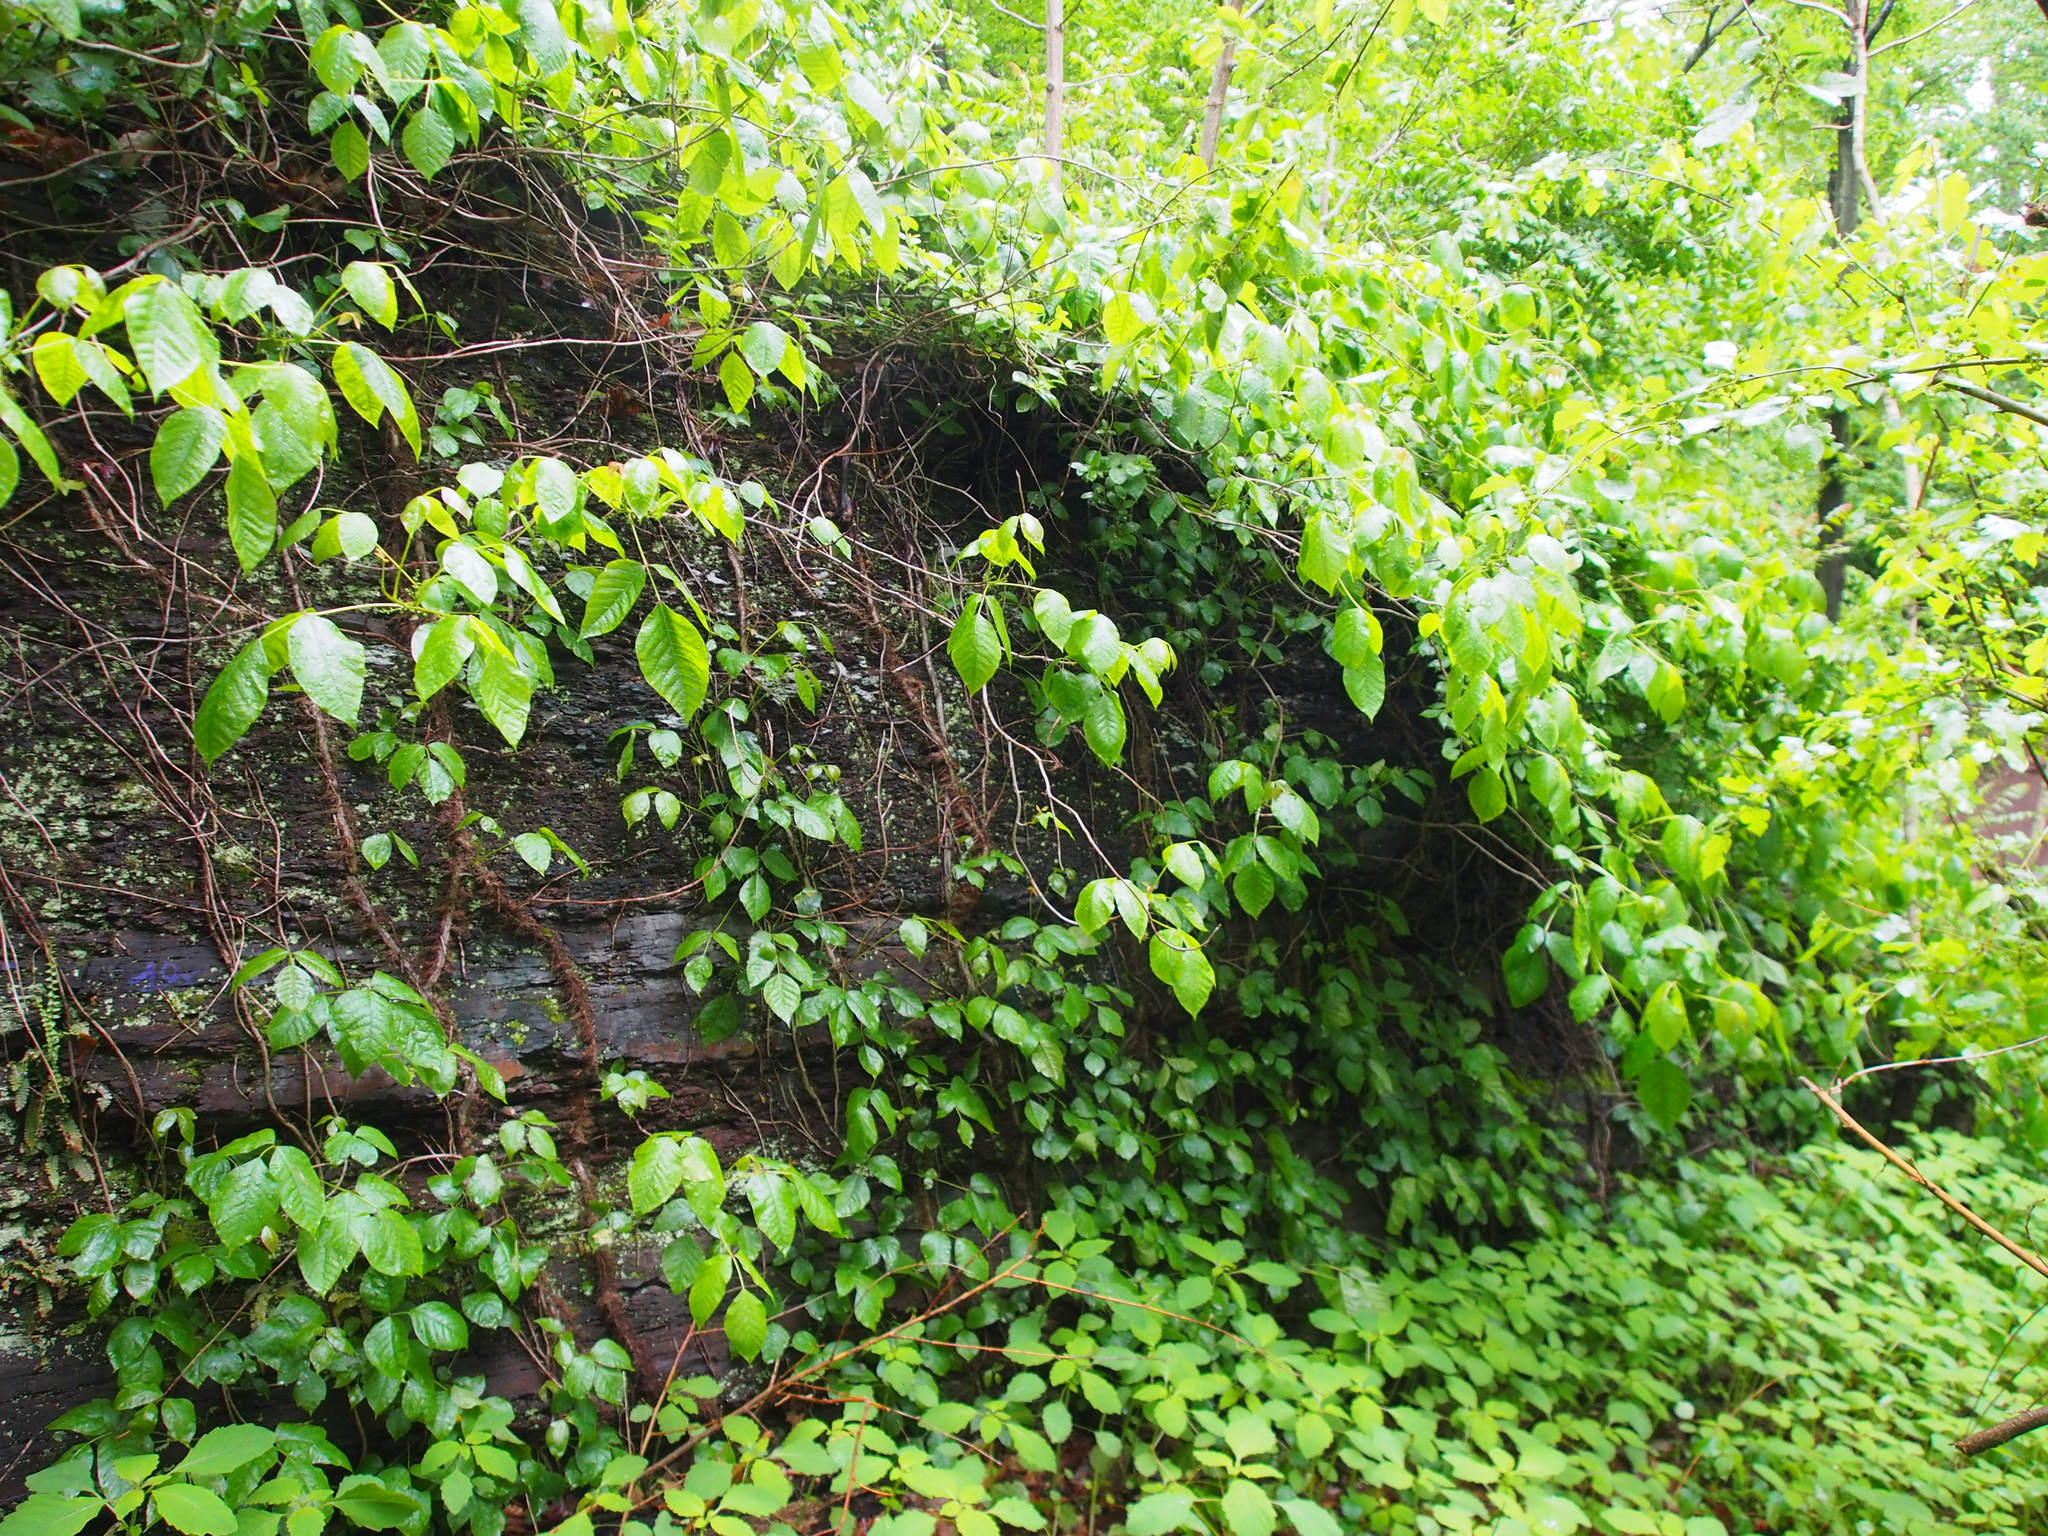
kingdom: Plantae
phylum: Tracheophyta
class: Magnoliopsida
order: Sapindales
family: Anacardiaceae
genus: Toxicodendron
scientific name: Toxicodendron radicans
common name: Poison ivy
